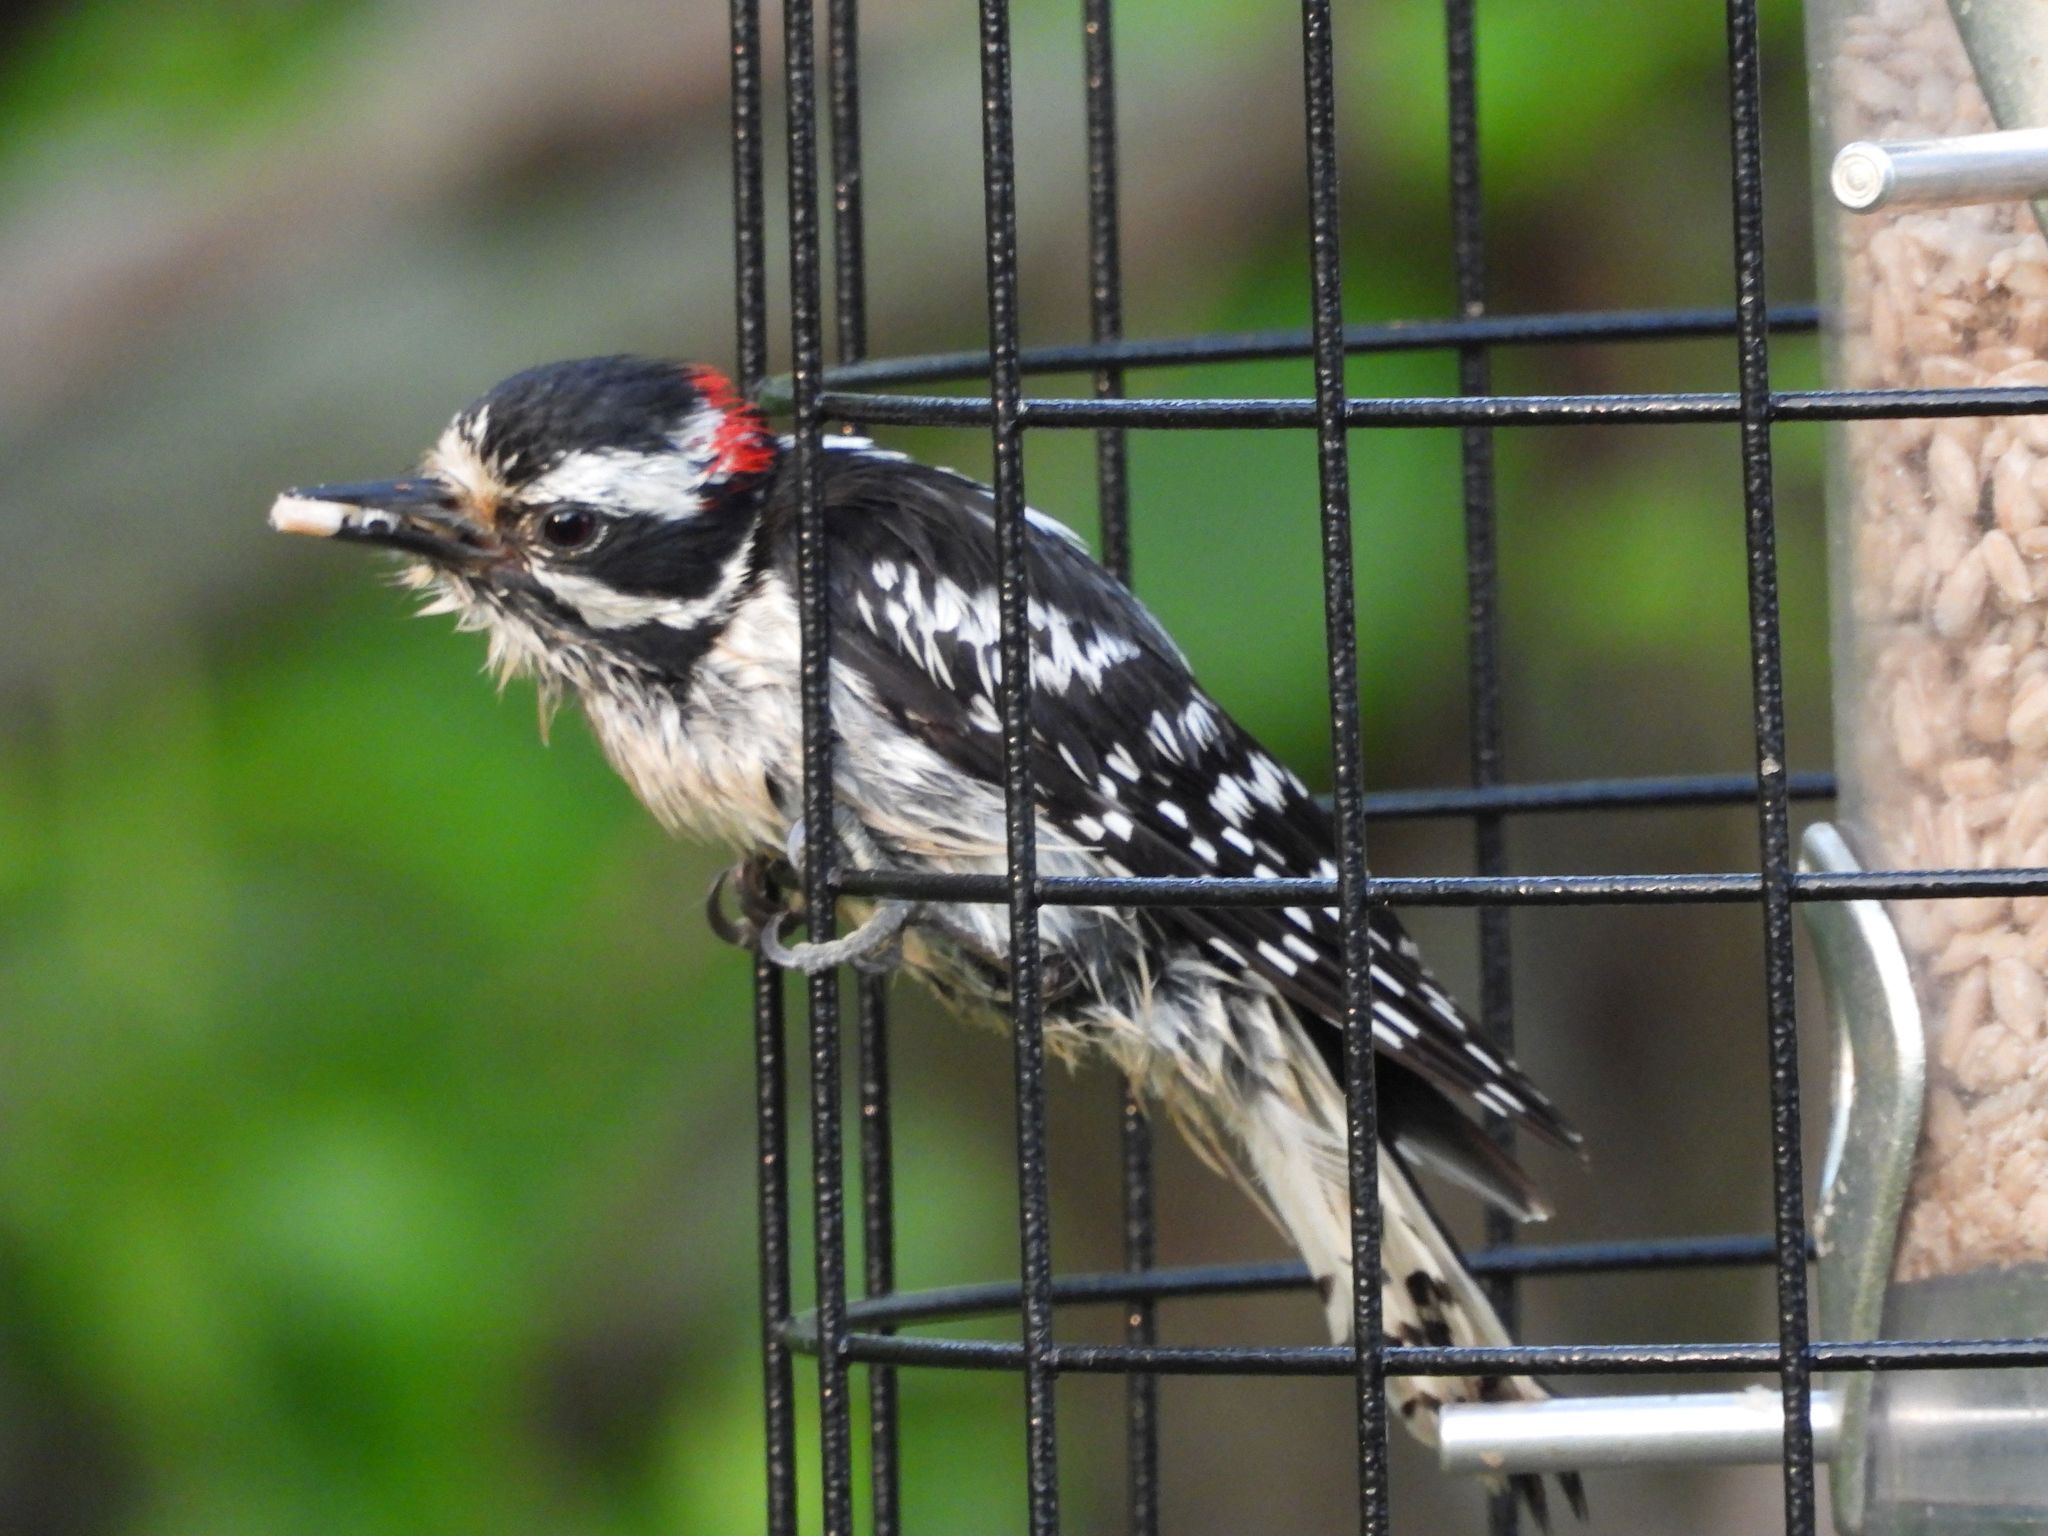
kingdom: Animalia
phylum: Chordata
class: Aves
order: Piciformes
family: Picidae
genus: Dryobates
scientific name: Dryobates pubescens
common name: Downy woodpecker
